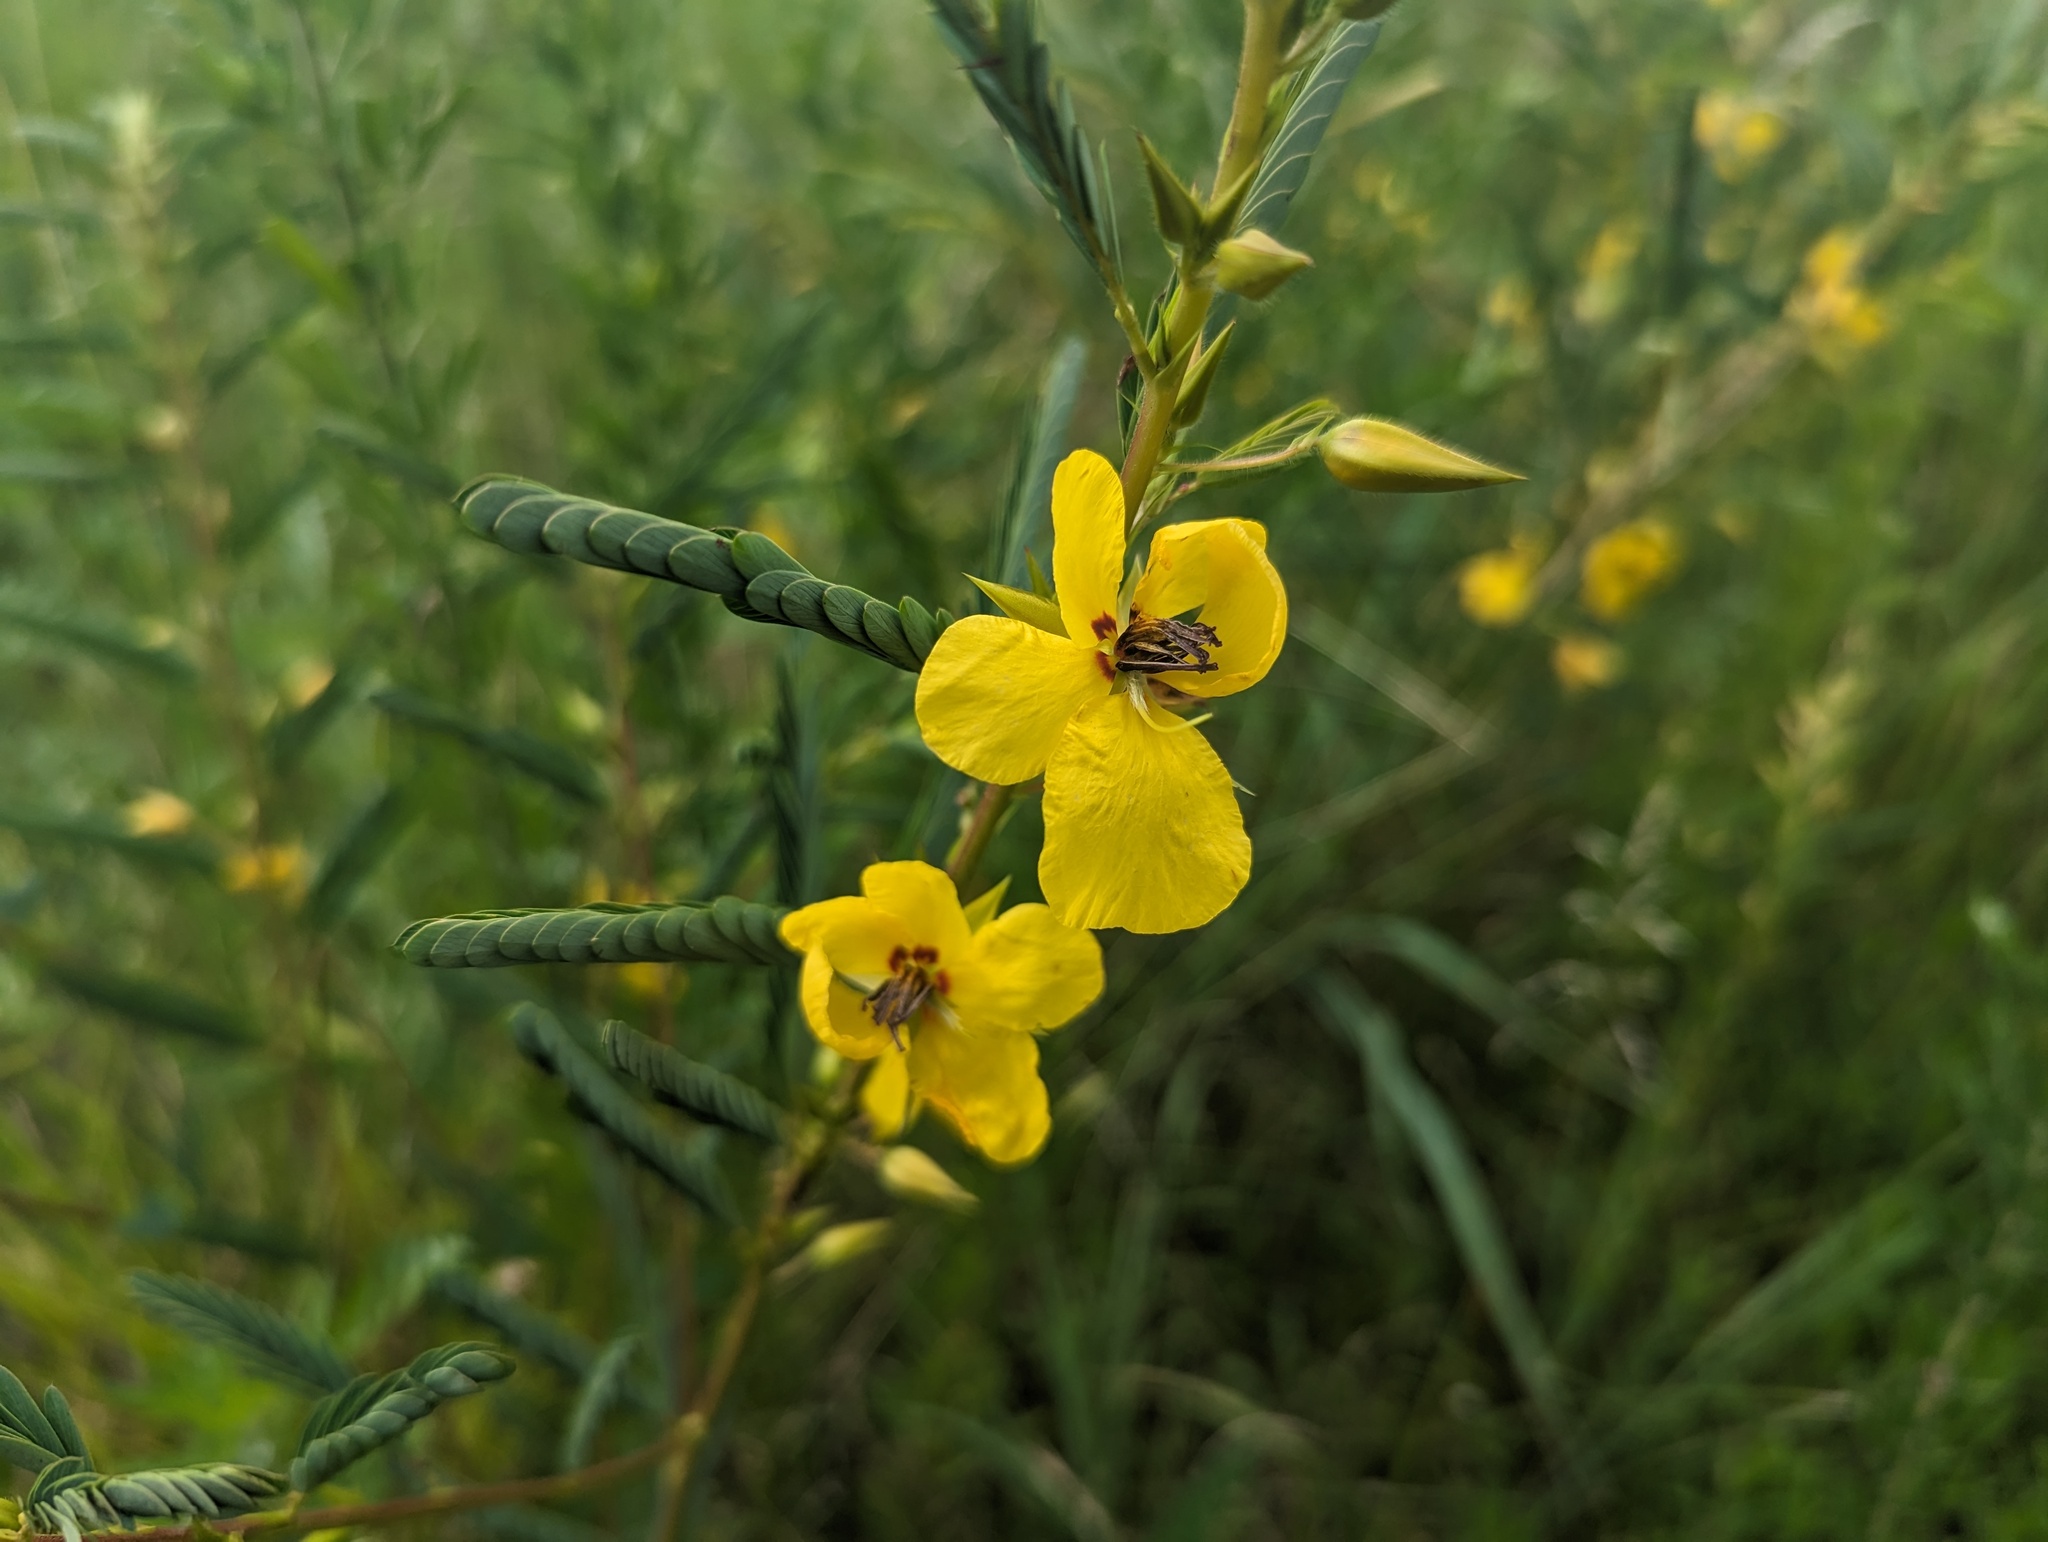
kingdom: Plantae
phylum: Tracheophyta
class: Magnoliopsida
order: Fabales
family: Fabaceae
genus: Chamaecrista
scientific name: Chamaecrista fasciculata
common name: Golden cassia
